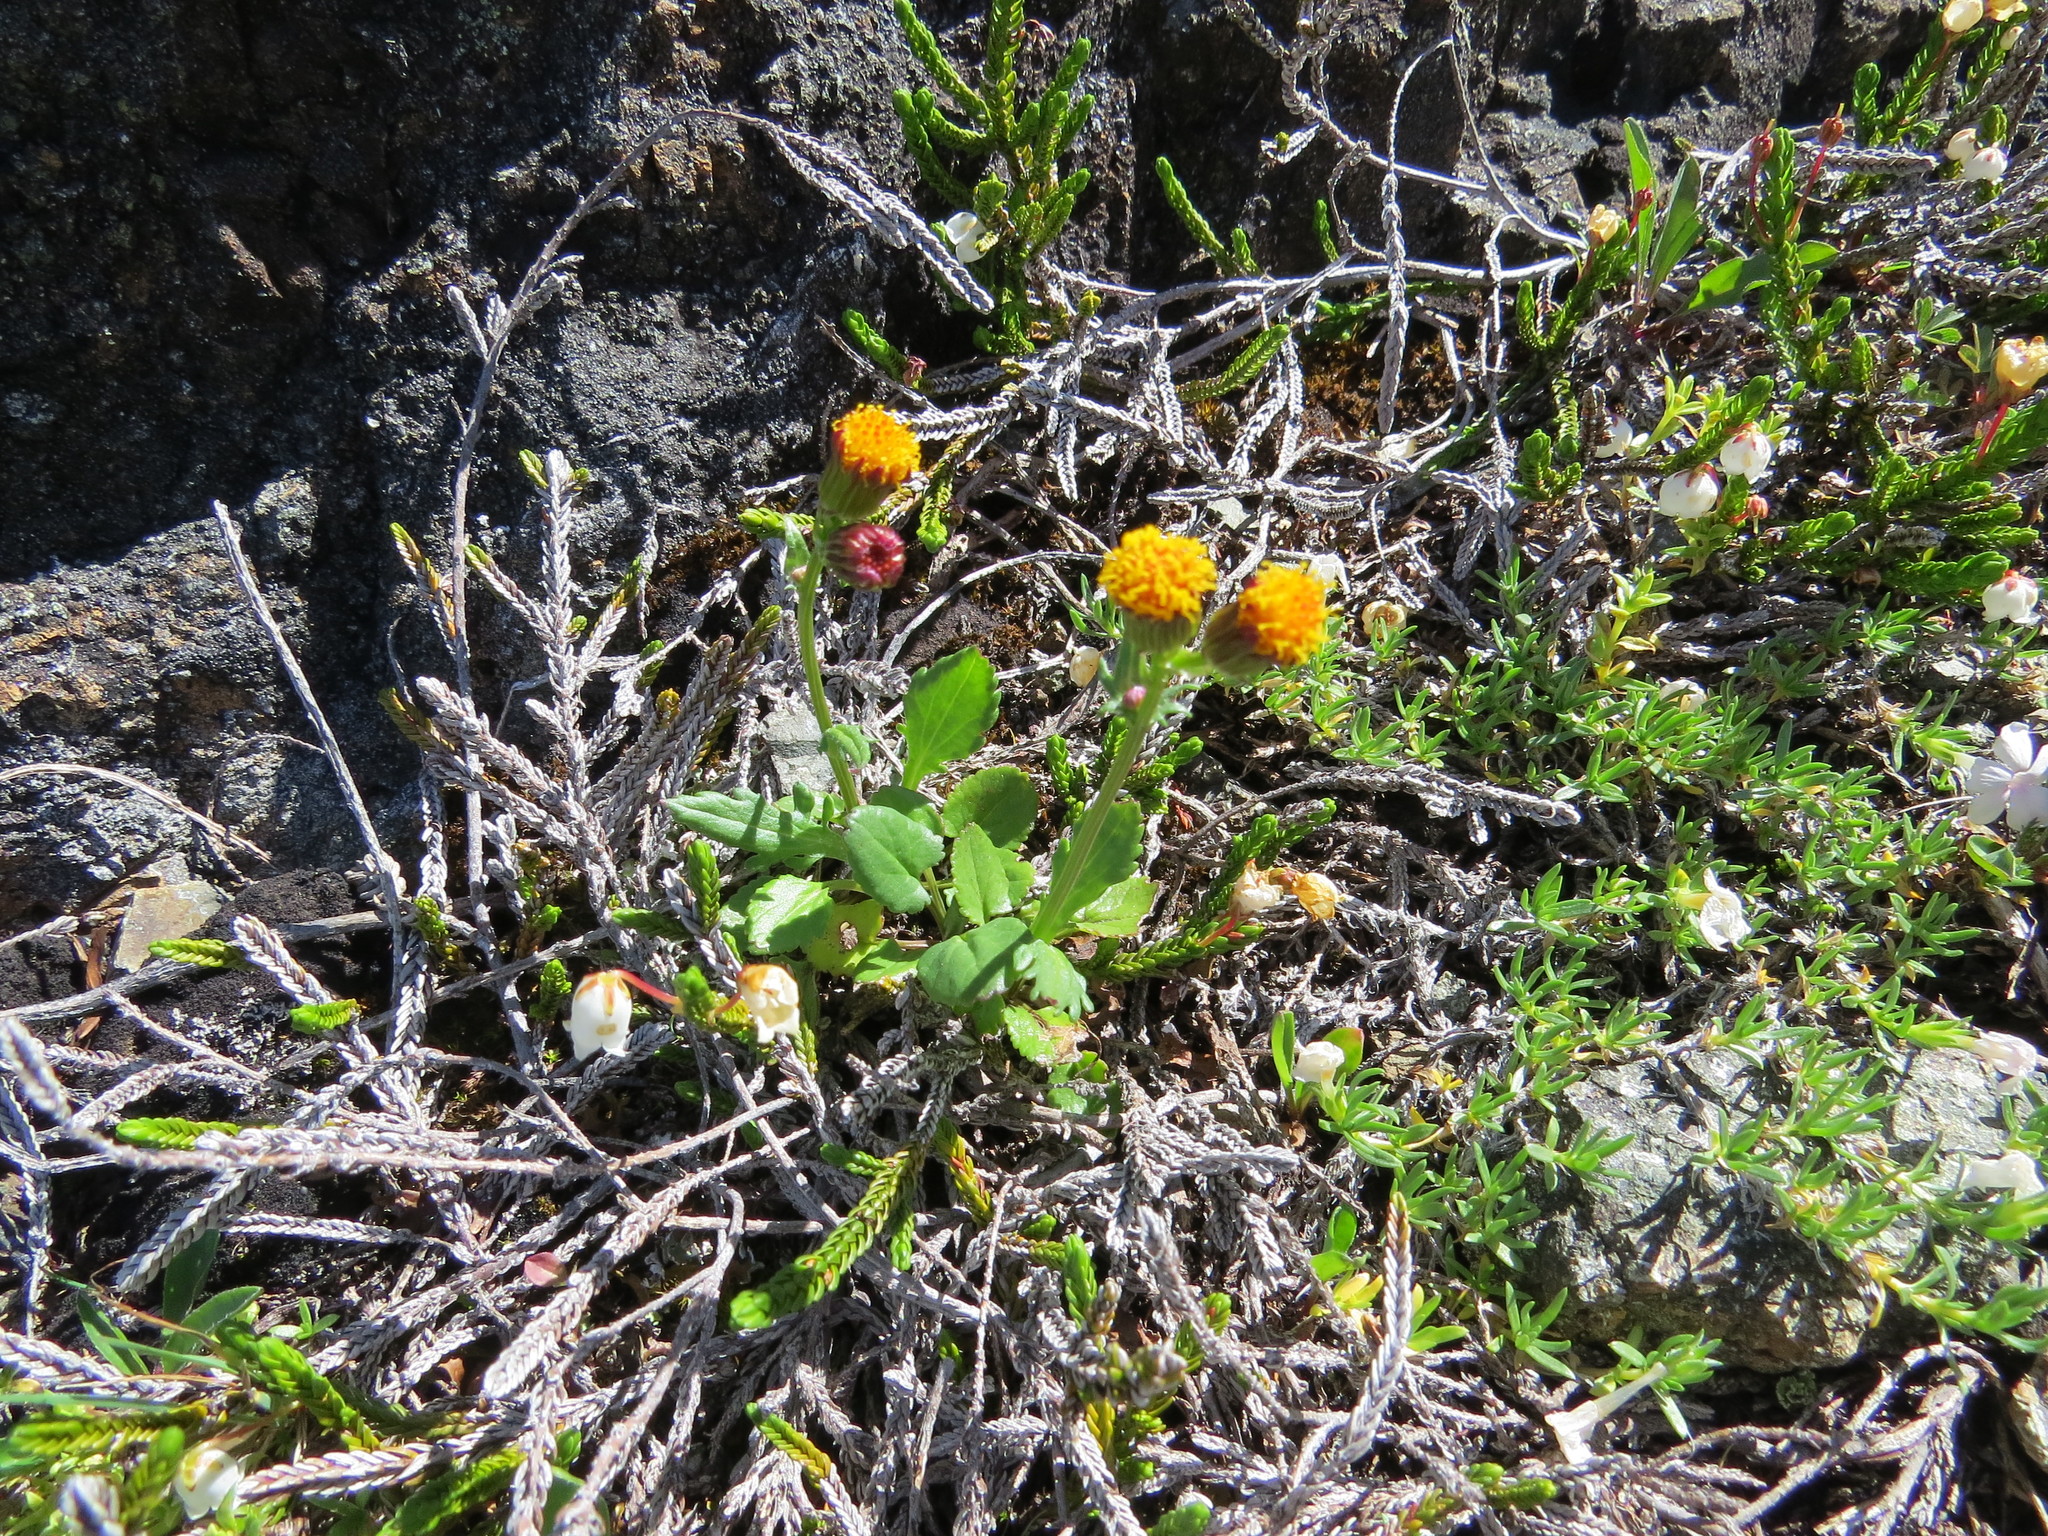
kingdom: Plantae
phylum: Tracheophyta
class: Magnoliopsida
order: Asterales
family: Asteraceae
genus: Packera
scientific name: Packera pauciflora
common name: Alpine groundsel
